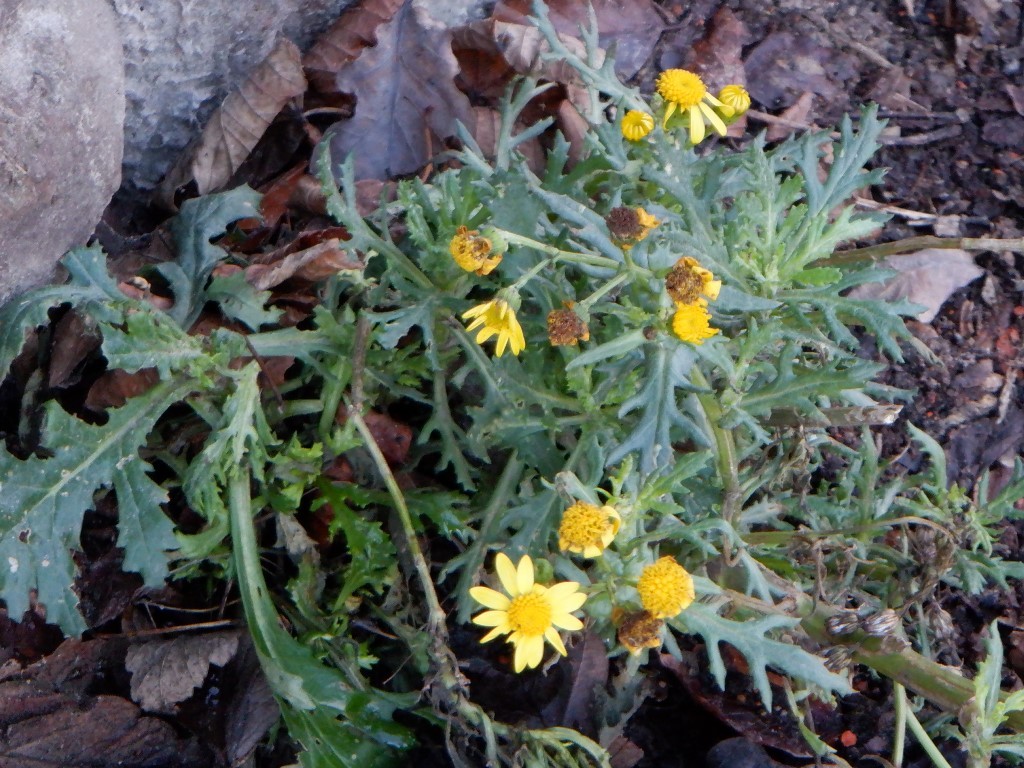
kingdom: Plantae
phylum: Tracheophyta
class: Magnoliopsida
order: Asterales
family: Asteraceae
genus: Senecio
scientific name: Senecio squalidus
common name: Oxford ragwort
